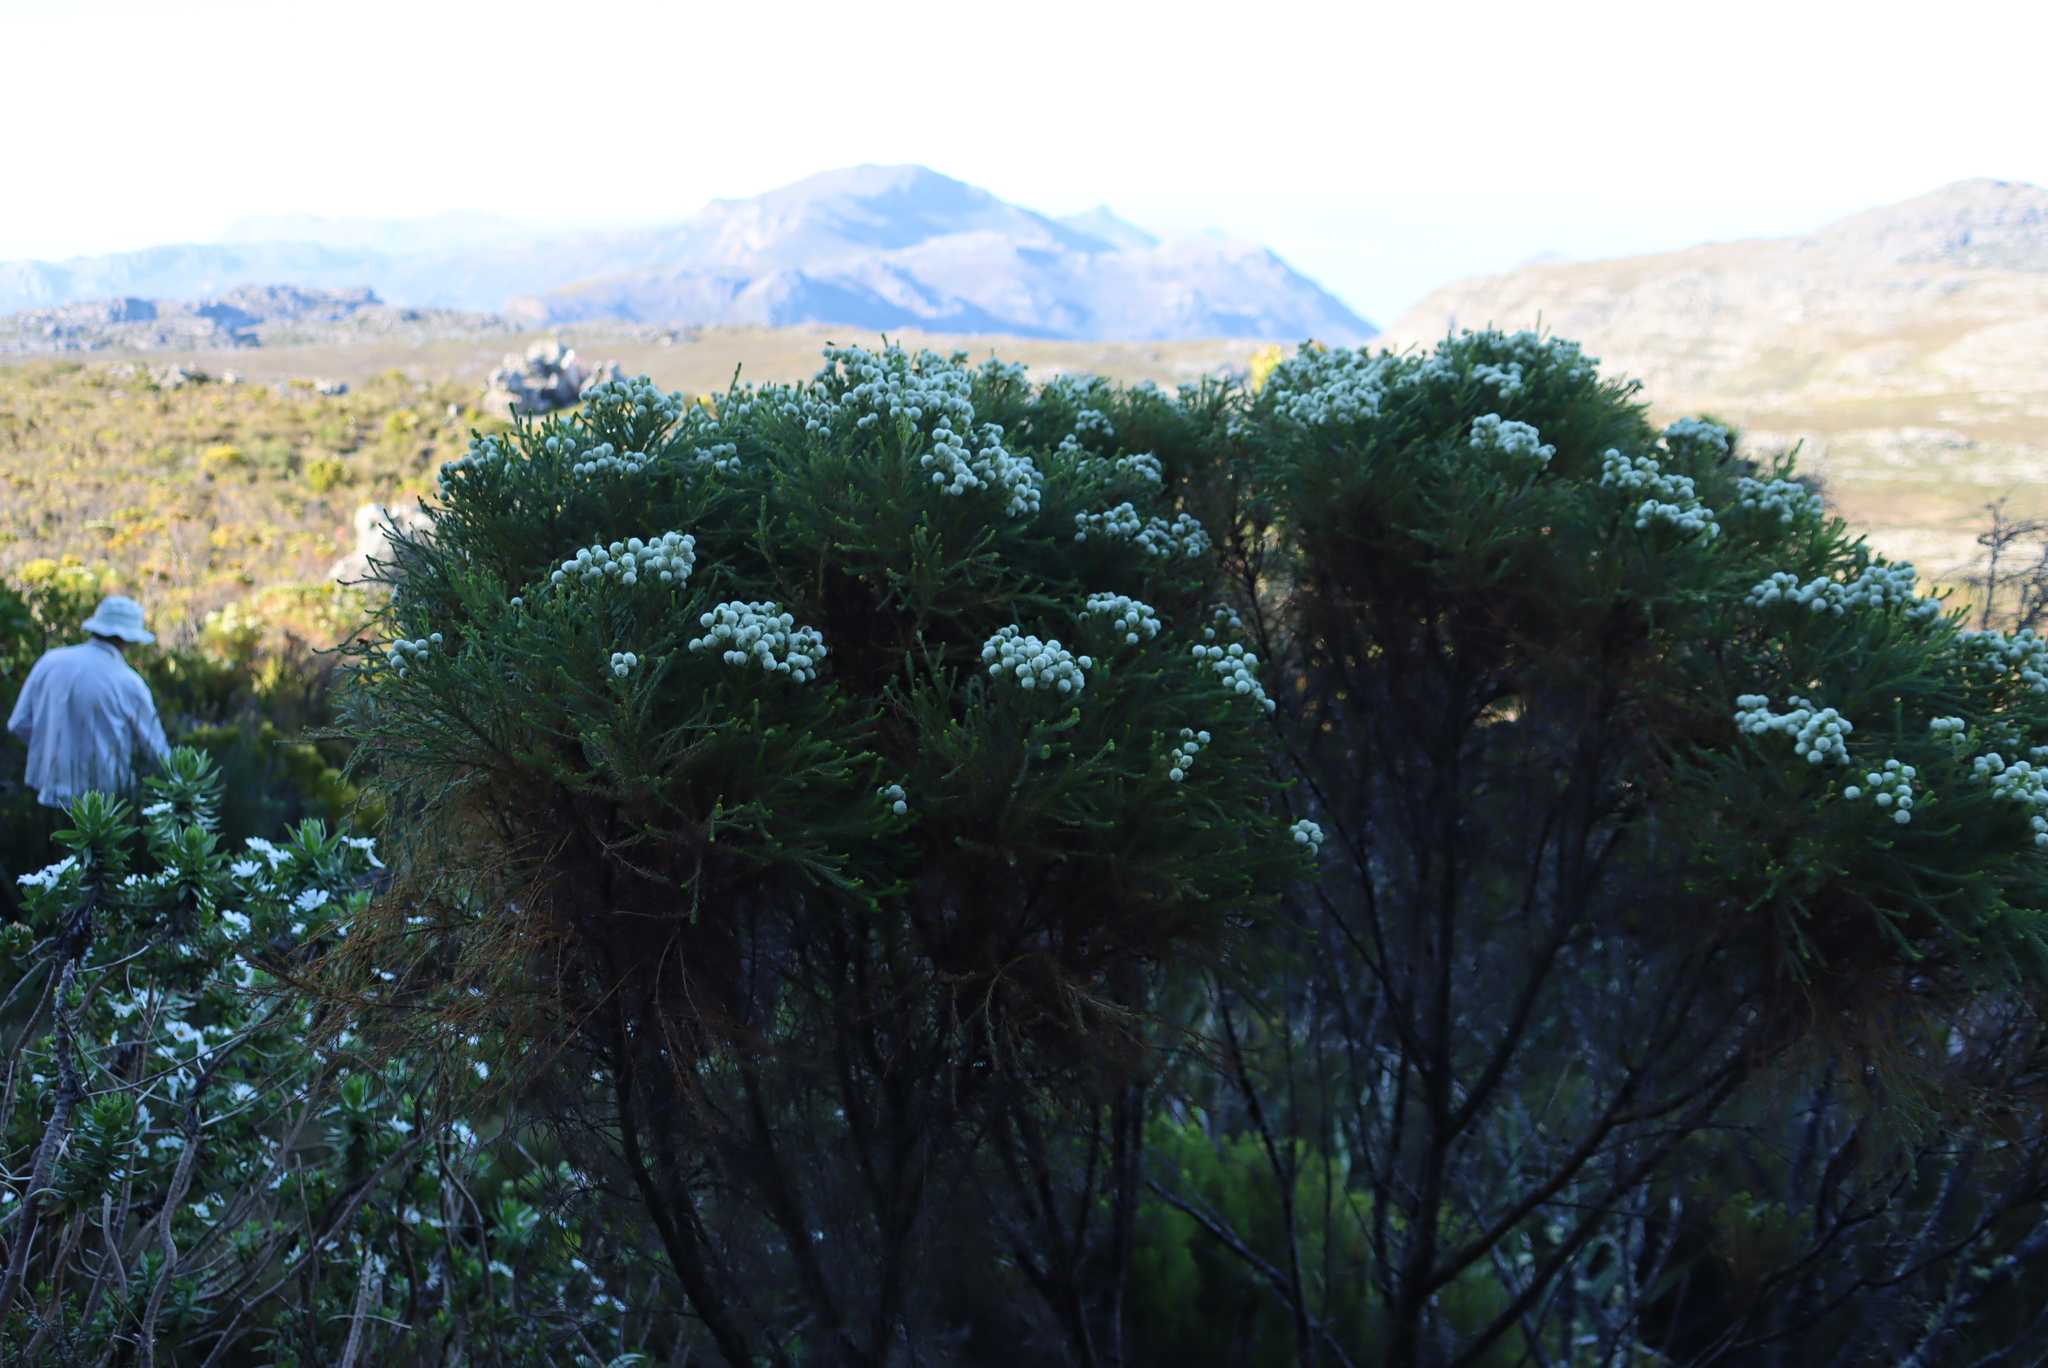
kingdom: Plantae
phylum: Tracheophyta
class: Magnoliopsida
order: Bruniales
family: Bruniaceae
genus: Berzelia
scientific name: Berzelia lanuginosa
